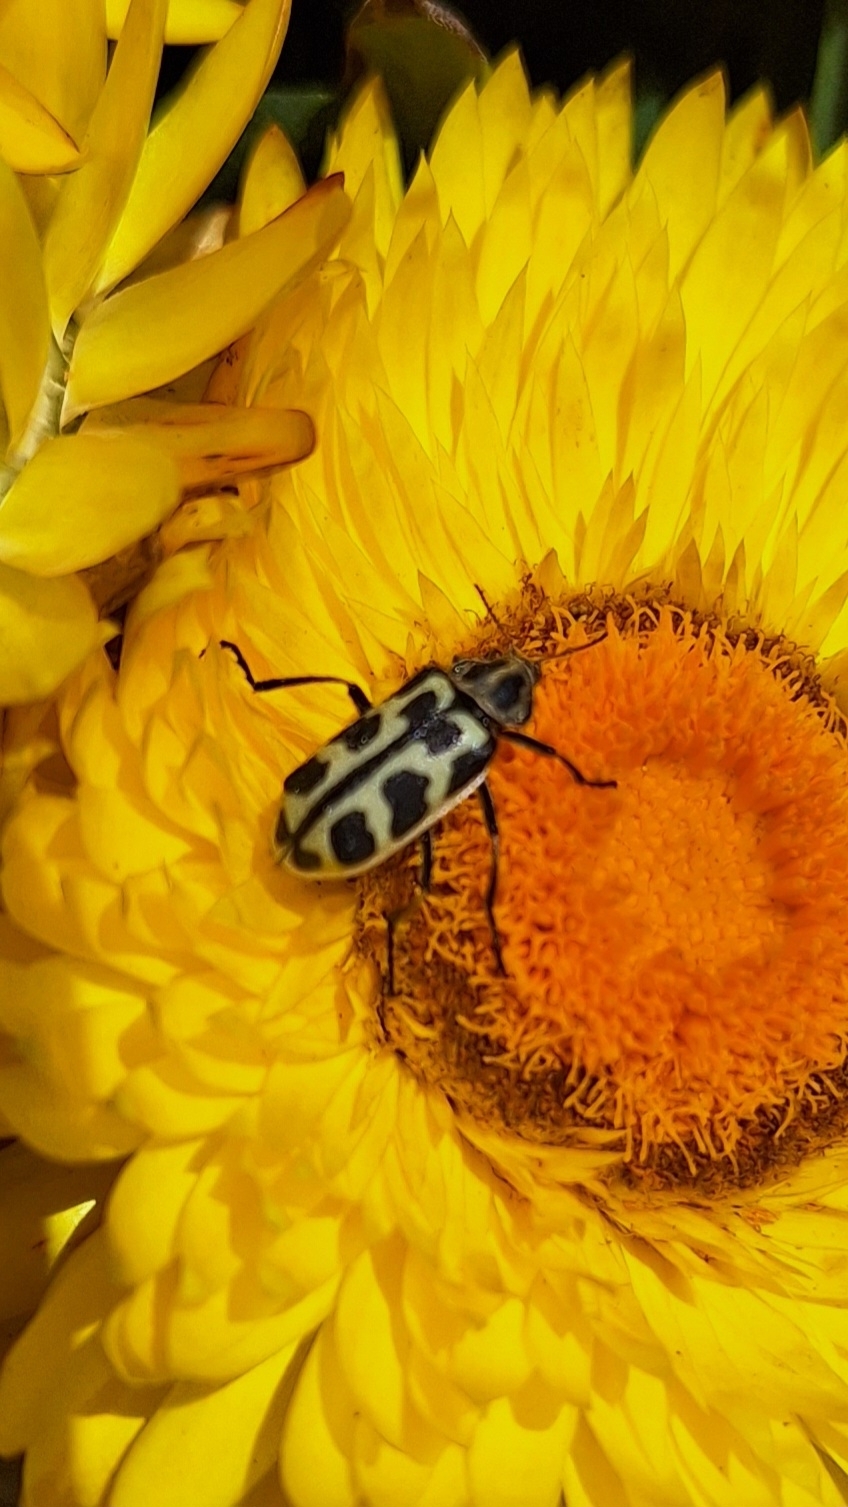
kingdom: Animalia
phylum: Arthropoda
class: Insecta
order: Coleoptera
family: Melyridae
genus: Astylus
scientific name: Astylus atromaculatus
